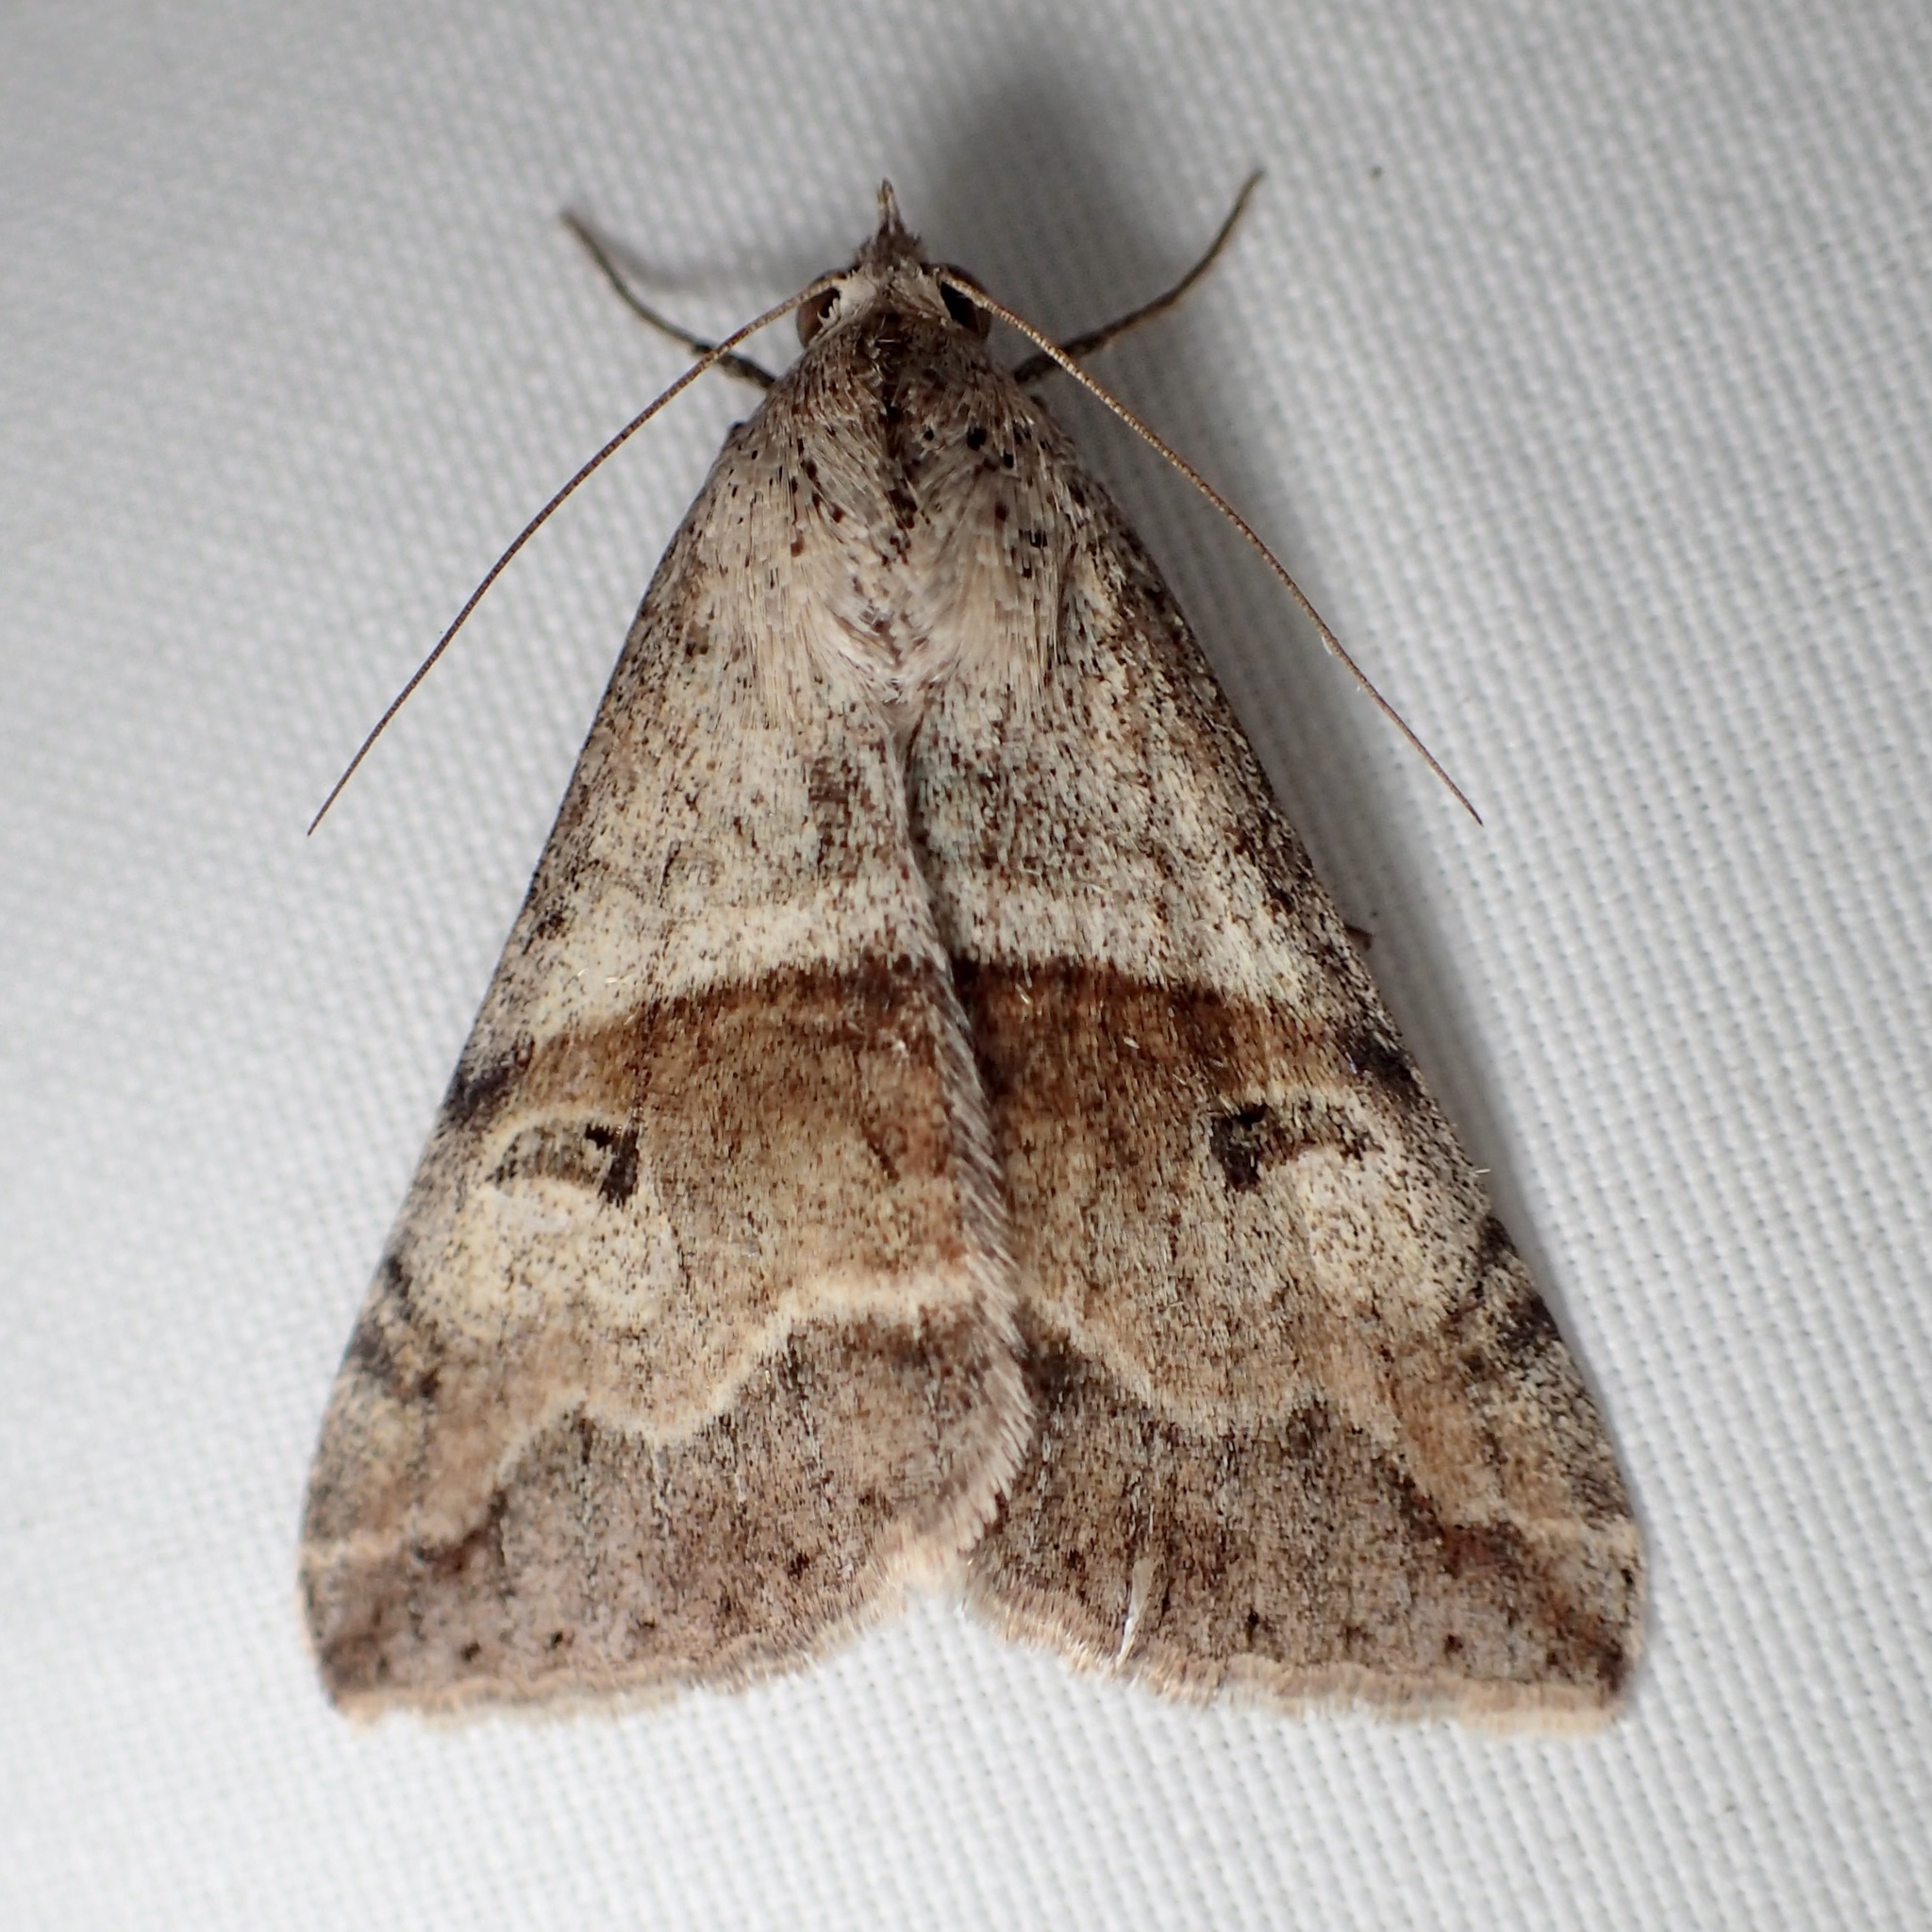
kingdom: Animalia
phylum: Arthropoda
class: Insecta
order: Lepidoptera
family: Erebidae
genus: Melipotis
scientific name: Melipotis cellaris
